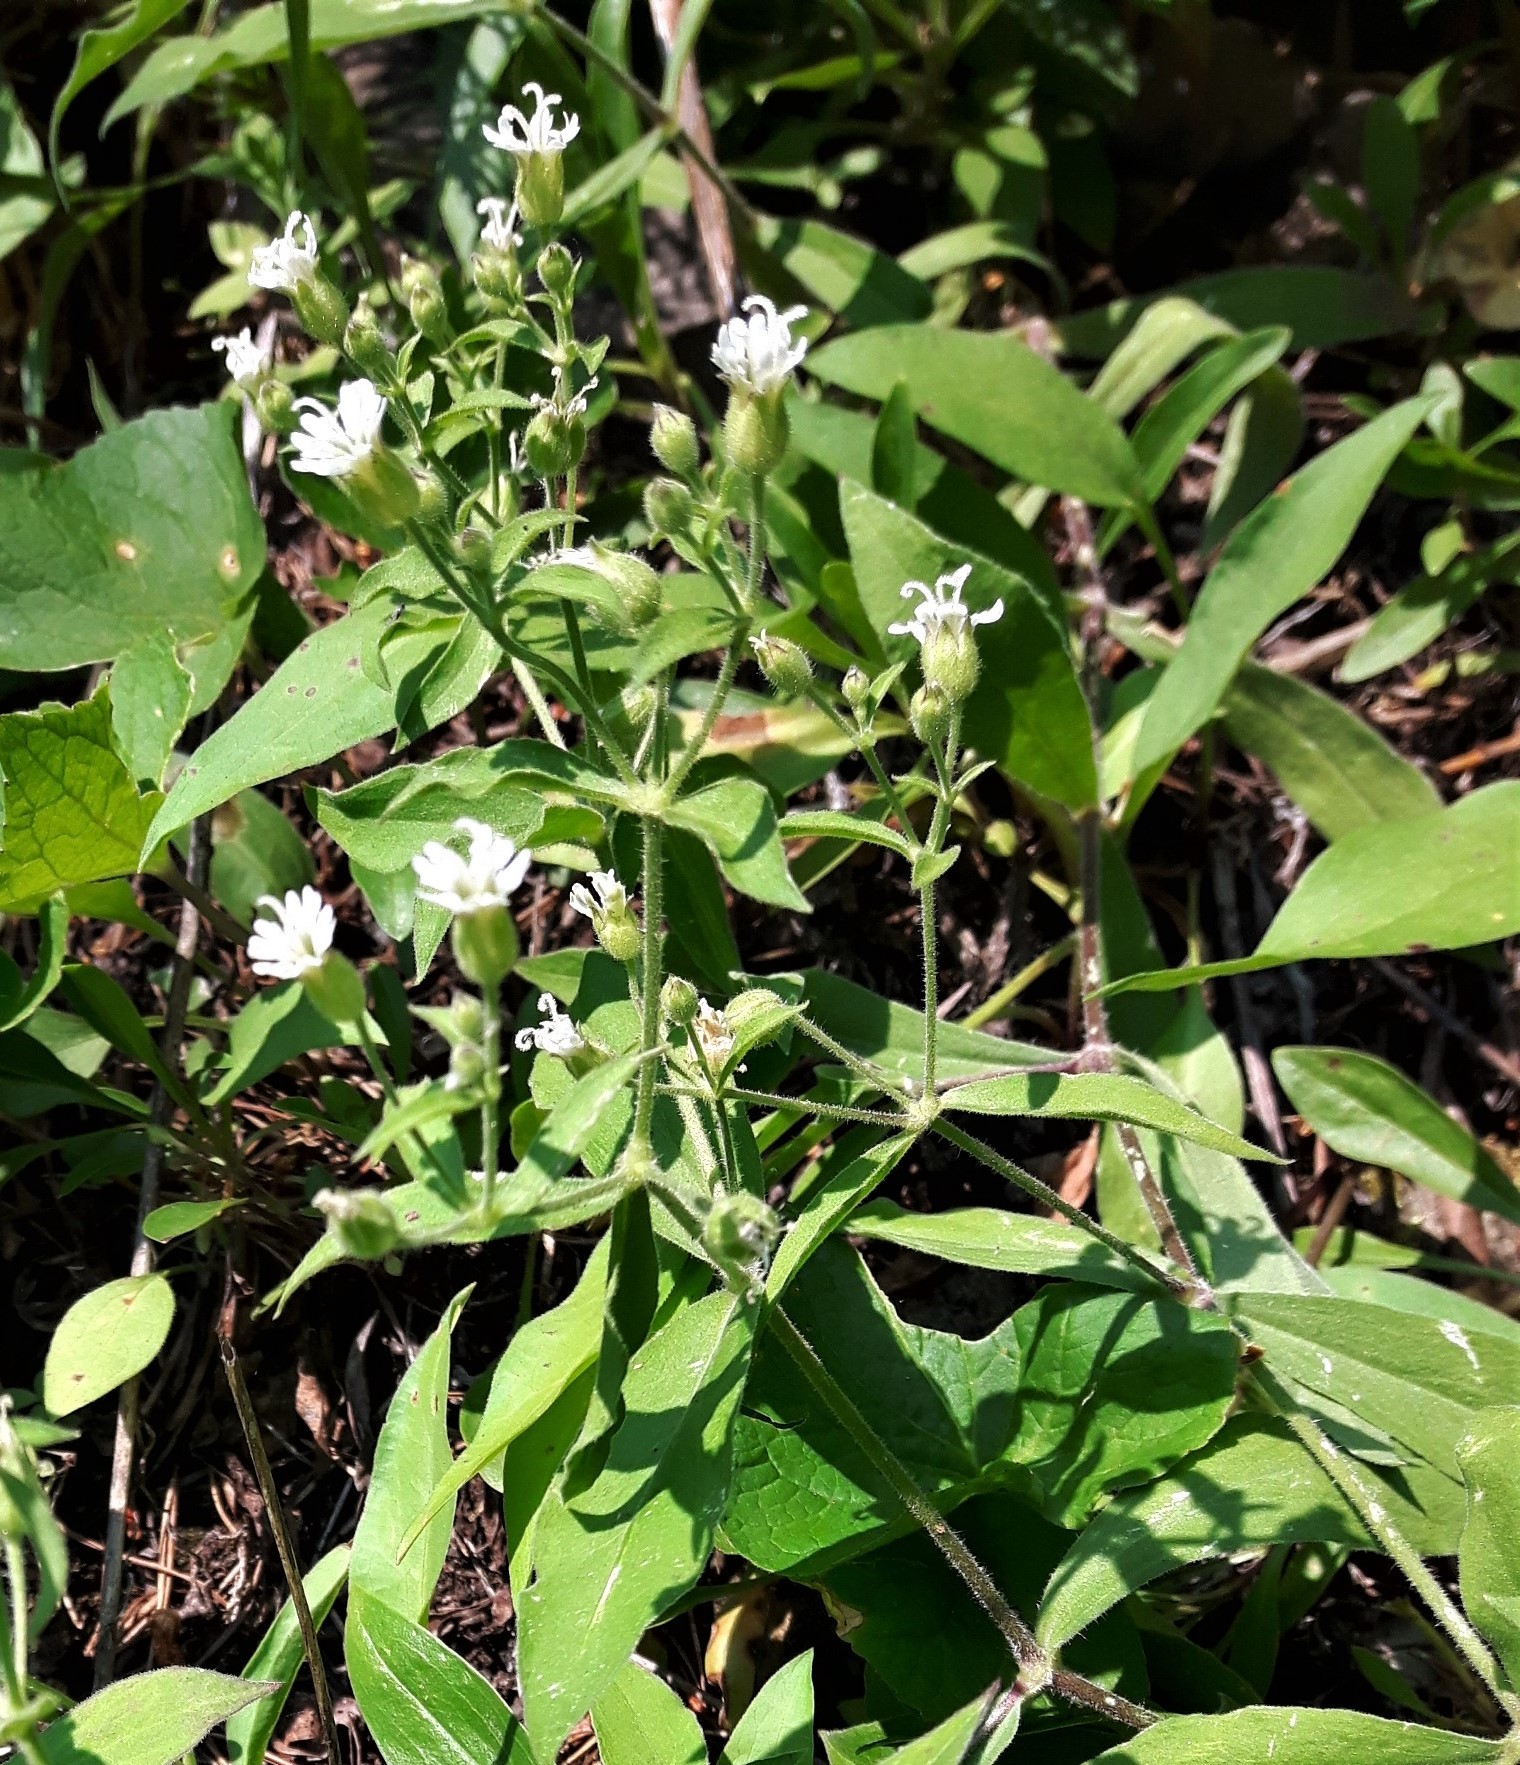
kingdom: Plantae
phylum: Tracheophyta
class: Magnoliopsida
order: Caryophyllales
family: Caryophyllaceae
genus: Silene
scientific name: Silene menziesii
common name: Menzies's catchfly
